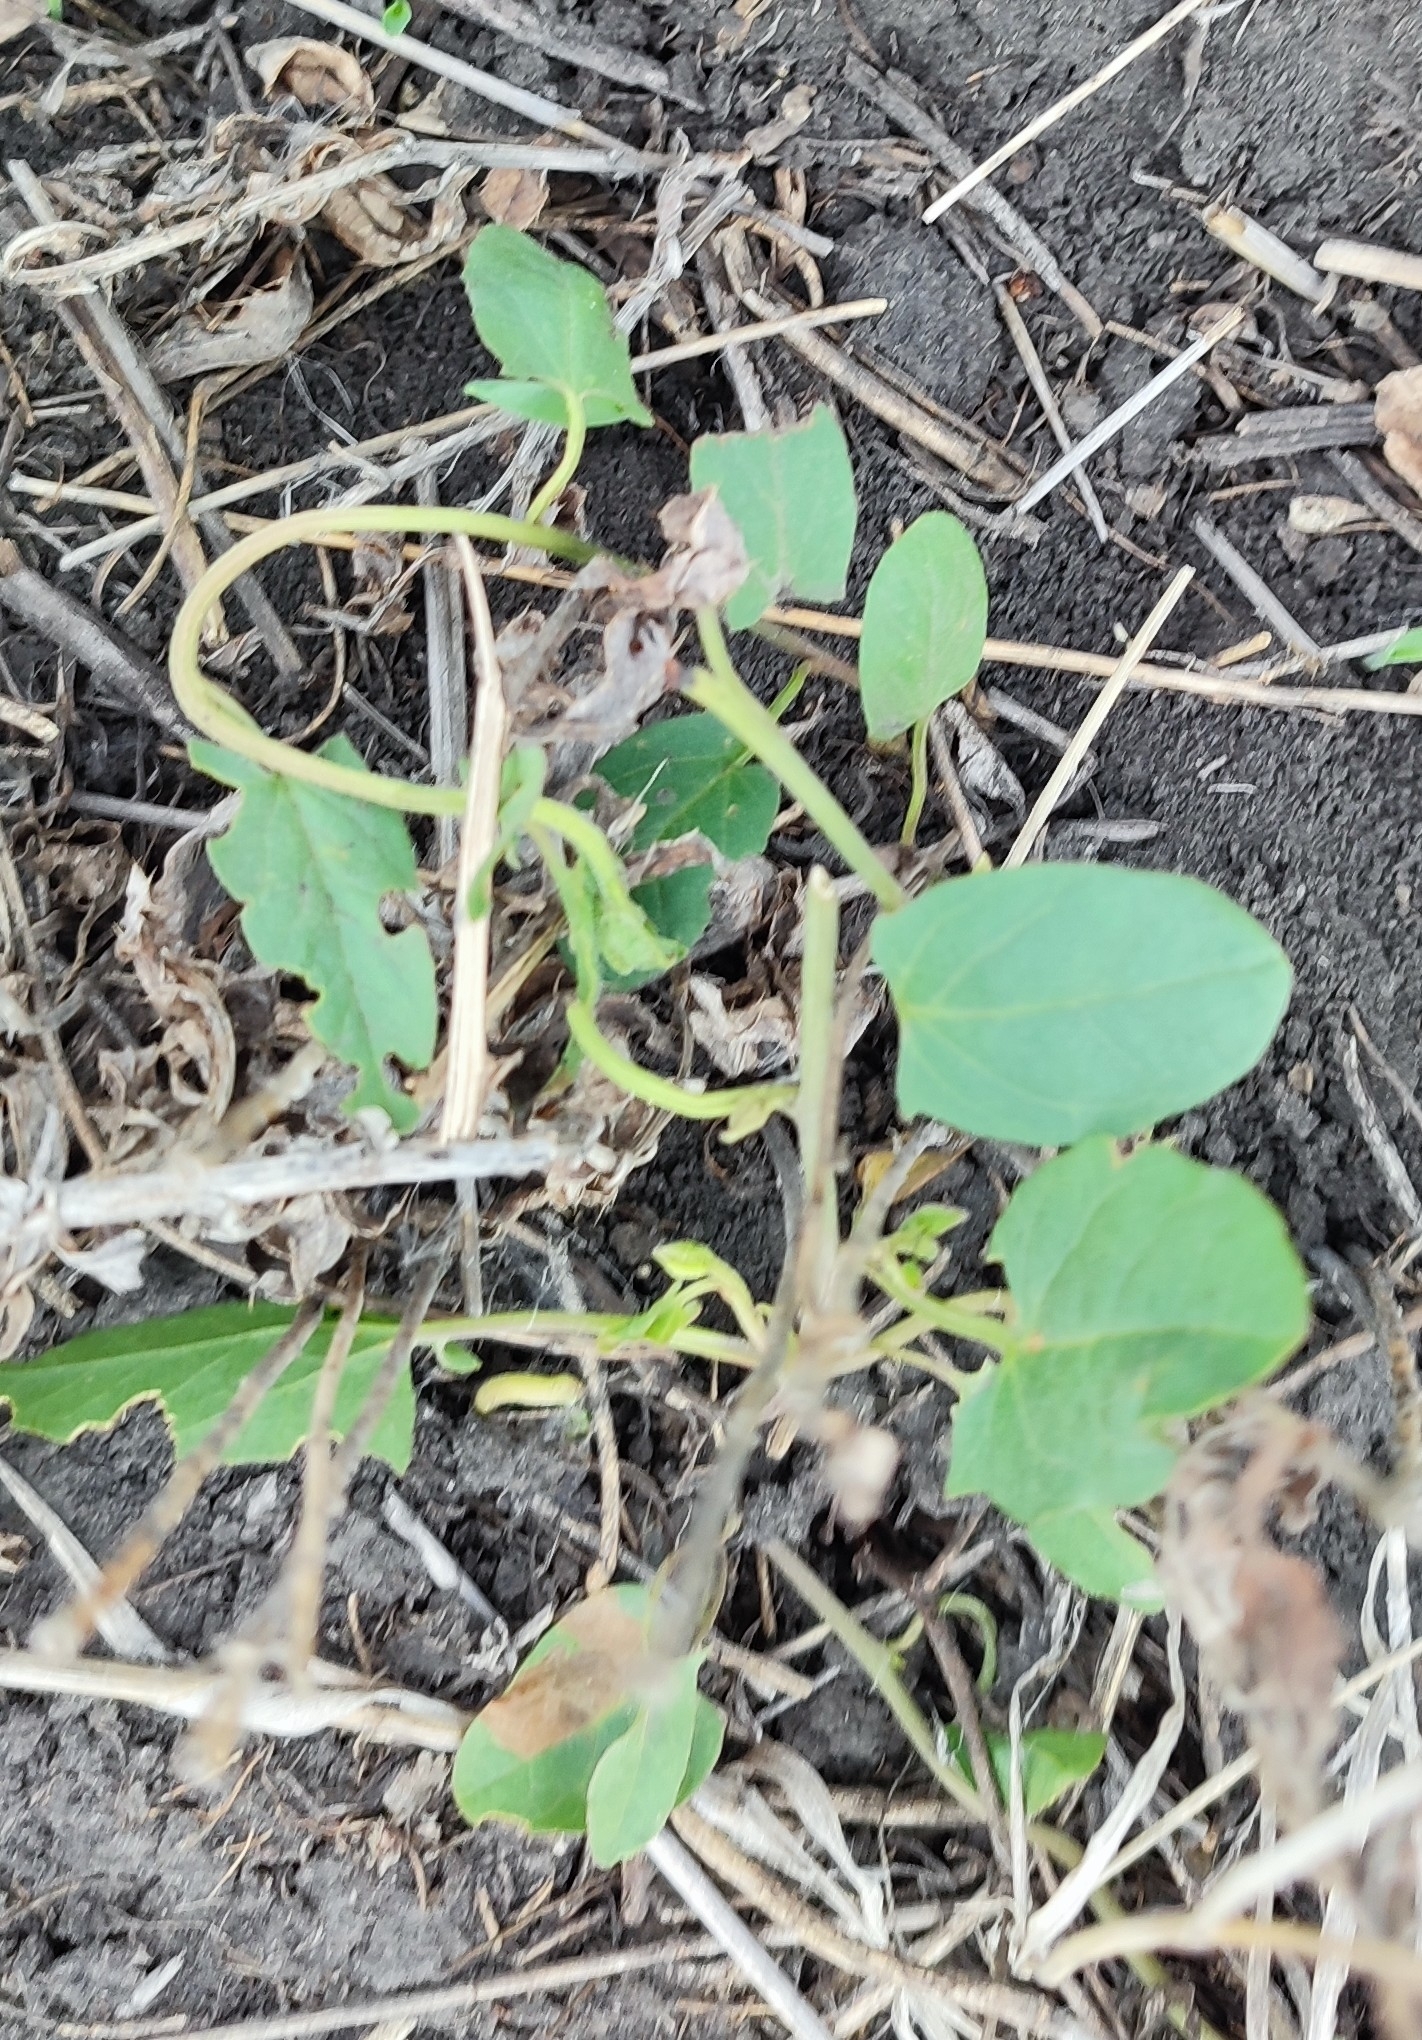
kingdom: Plantae
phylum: Tracheophyta
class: Magnoliopsida
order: Solanales
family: Convolvulaceae
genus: Convolvulus
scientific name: Convolvulus arvensis
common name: Field bindweed
